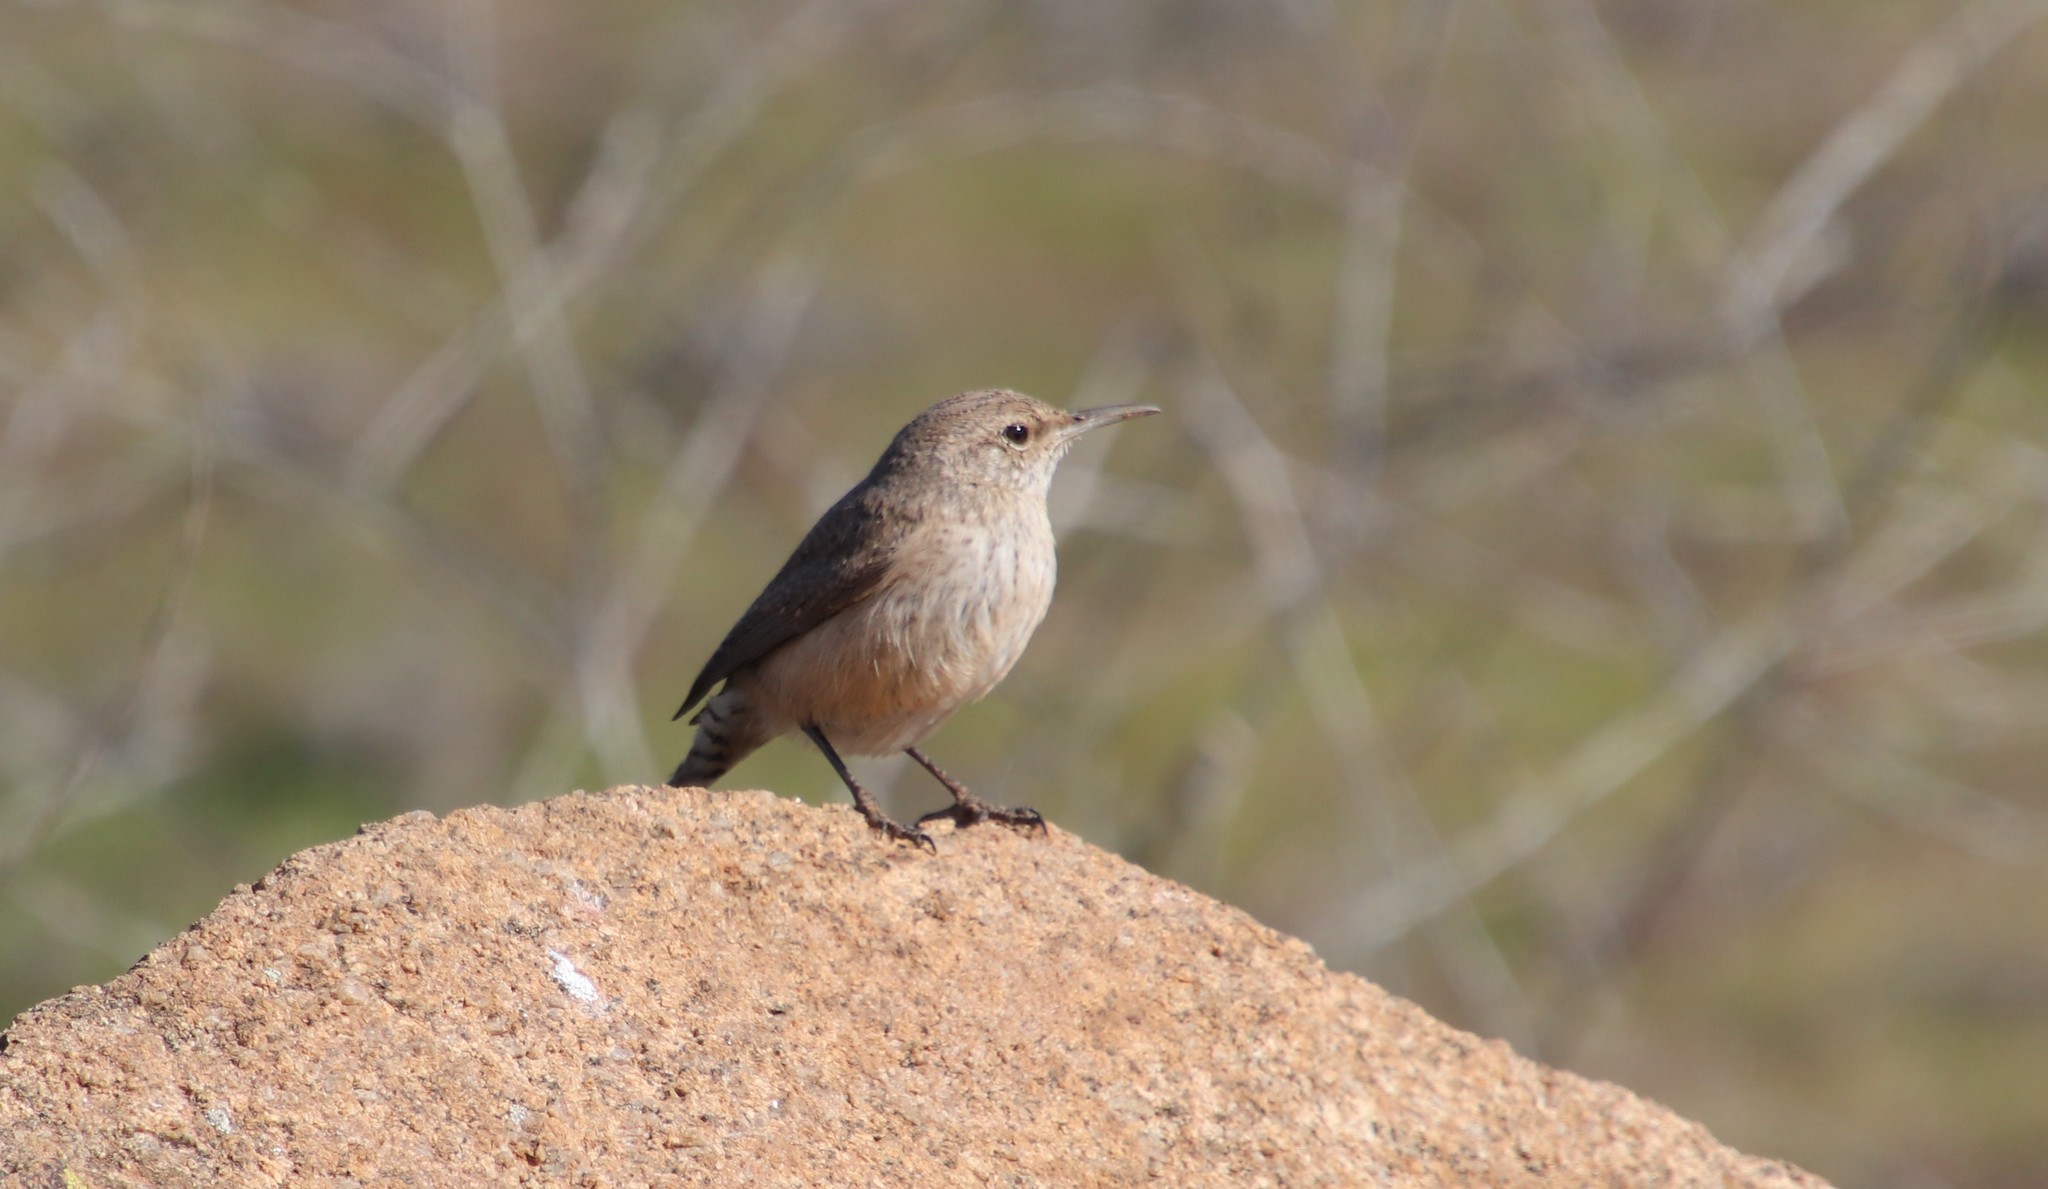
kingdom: Animalia
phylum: Chordata
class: Aves
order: Passeriformes
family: Troglodytidae
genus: Salpinctes
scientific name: Salpinctes obsoletus
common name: Rock wren
